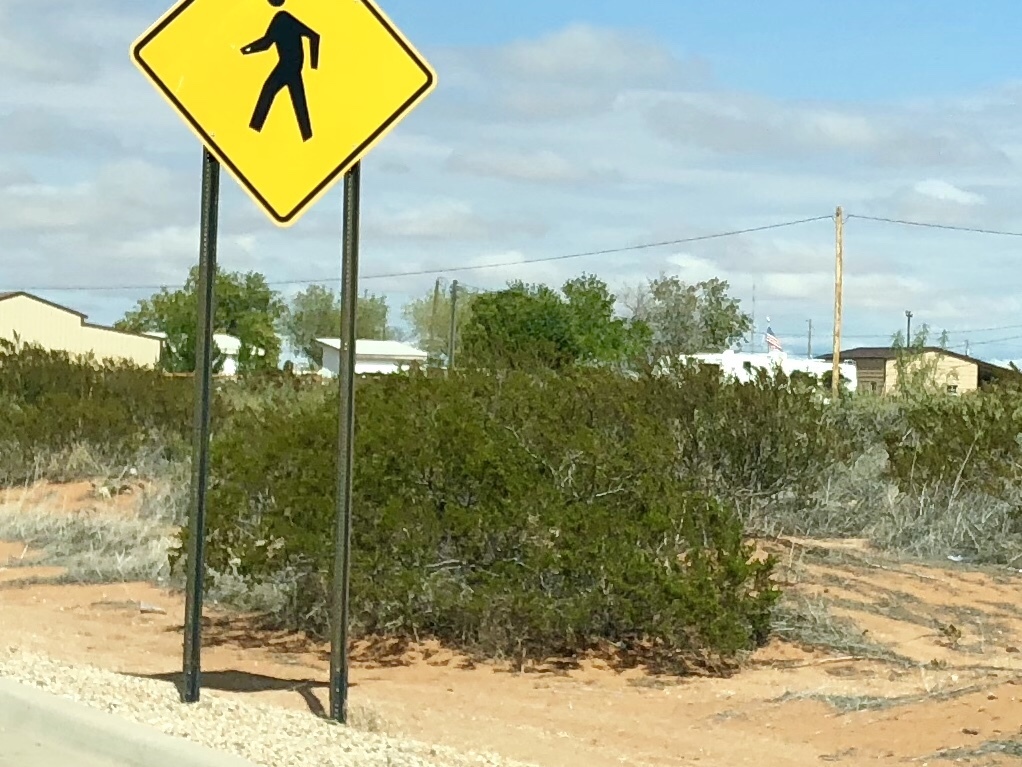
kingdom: Plantae
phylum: Tracheophyta
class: Magnoliopsida
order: Zygophyllales
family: Zygophyllaceae
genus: Larrea
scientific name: Larrea tridentata
